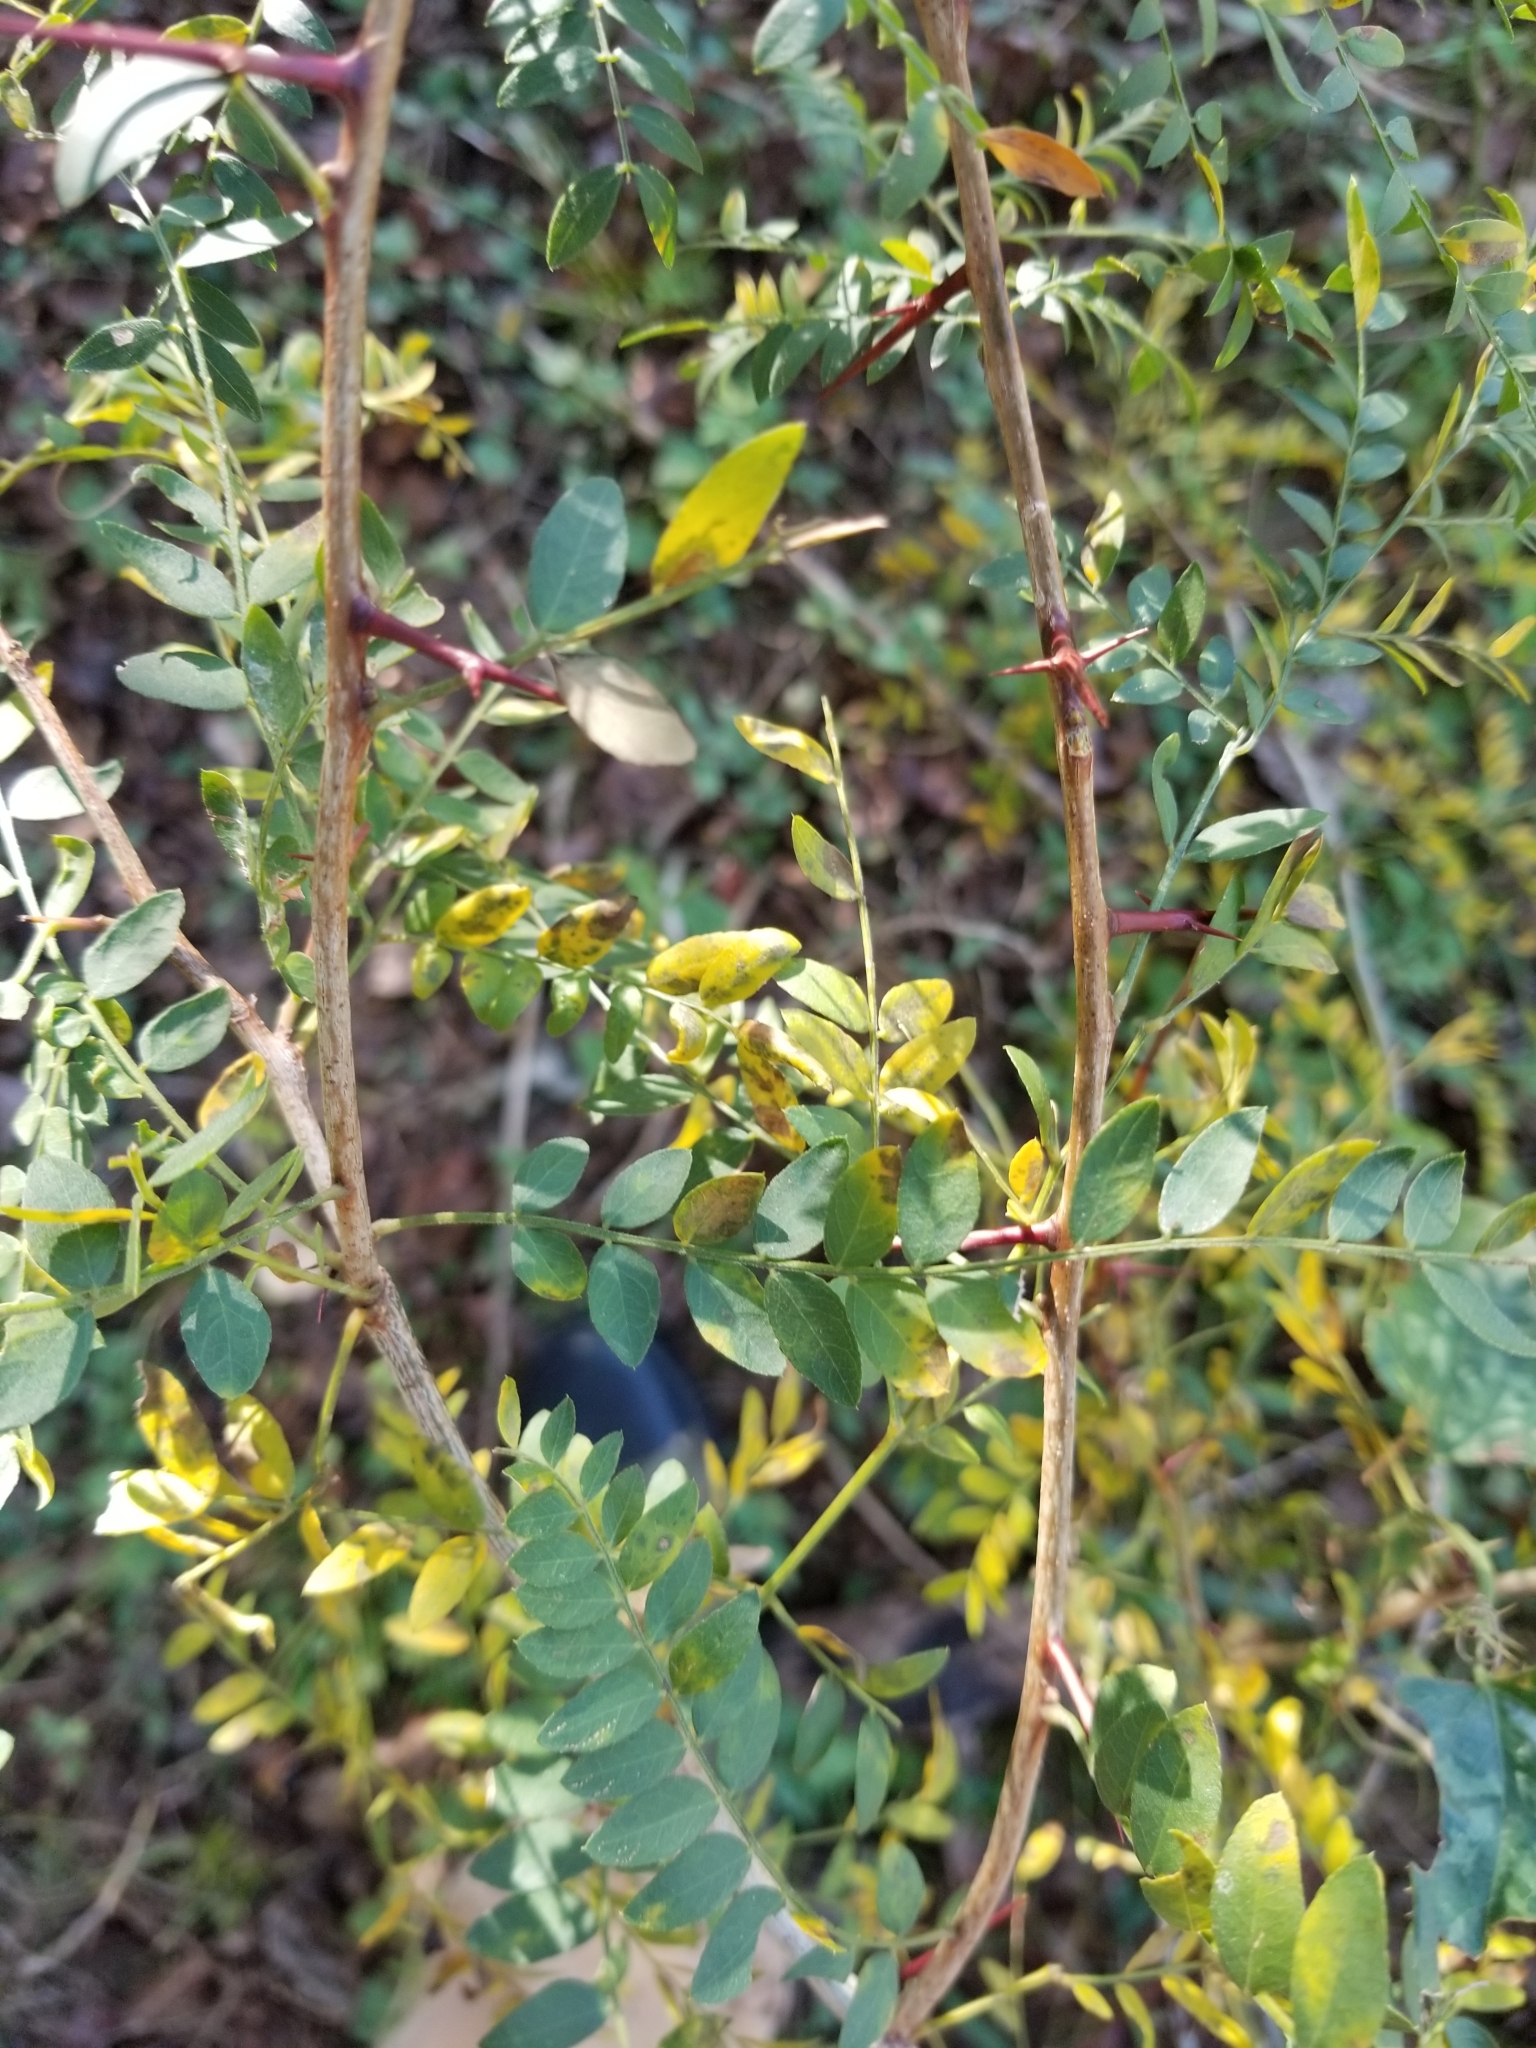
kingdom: Plantae
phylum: Tracheophyta
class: Magnoliopsida
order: Fabales
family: Fabaceae
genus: Gleditsia
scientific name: Gleditsia triacanthos
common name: Common honeylocust
